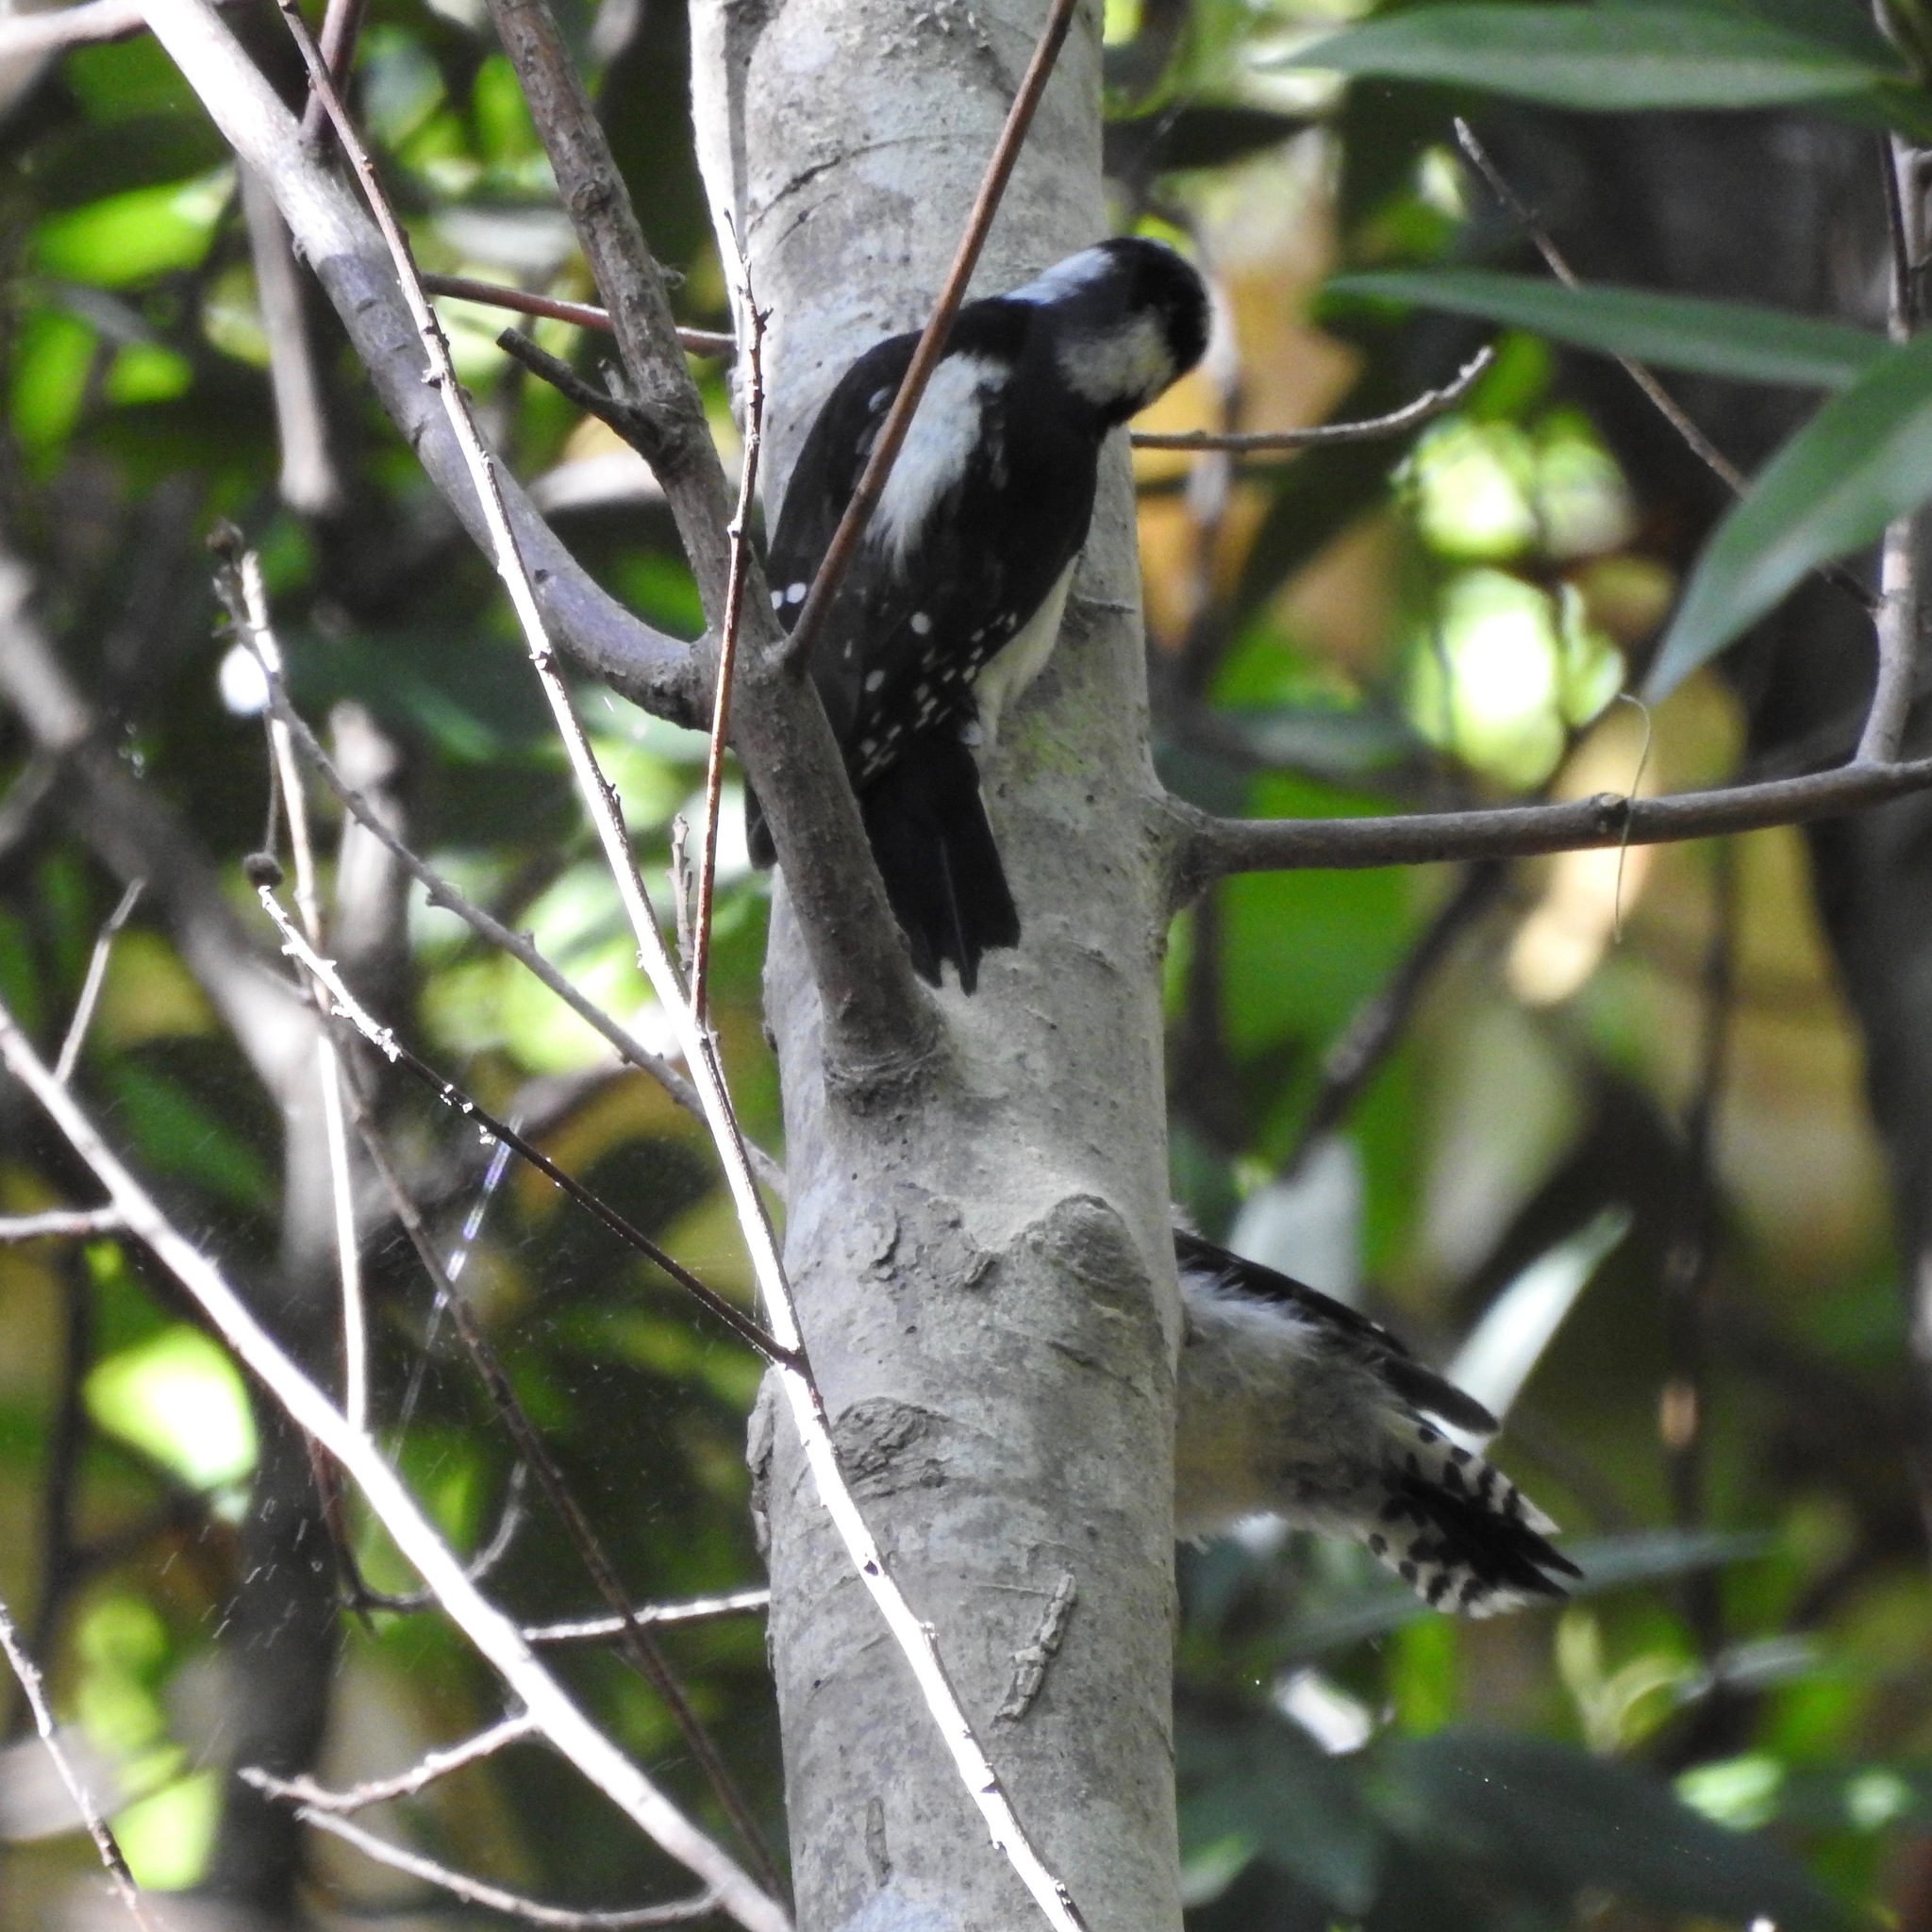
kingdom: Animalia
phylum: Chordata
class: Aves
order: Piciformes
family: Picidae
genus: Dryobates
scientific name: Dryobates pubescens
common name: Downy woodpecker
